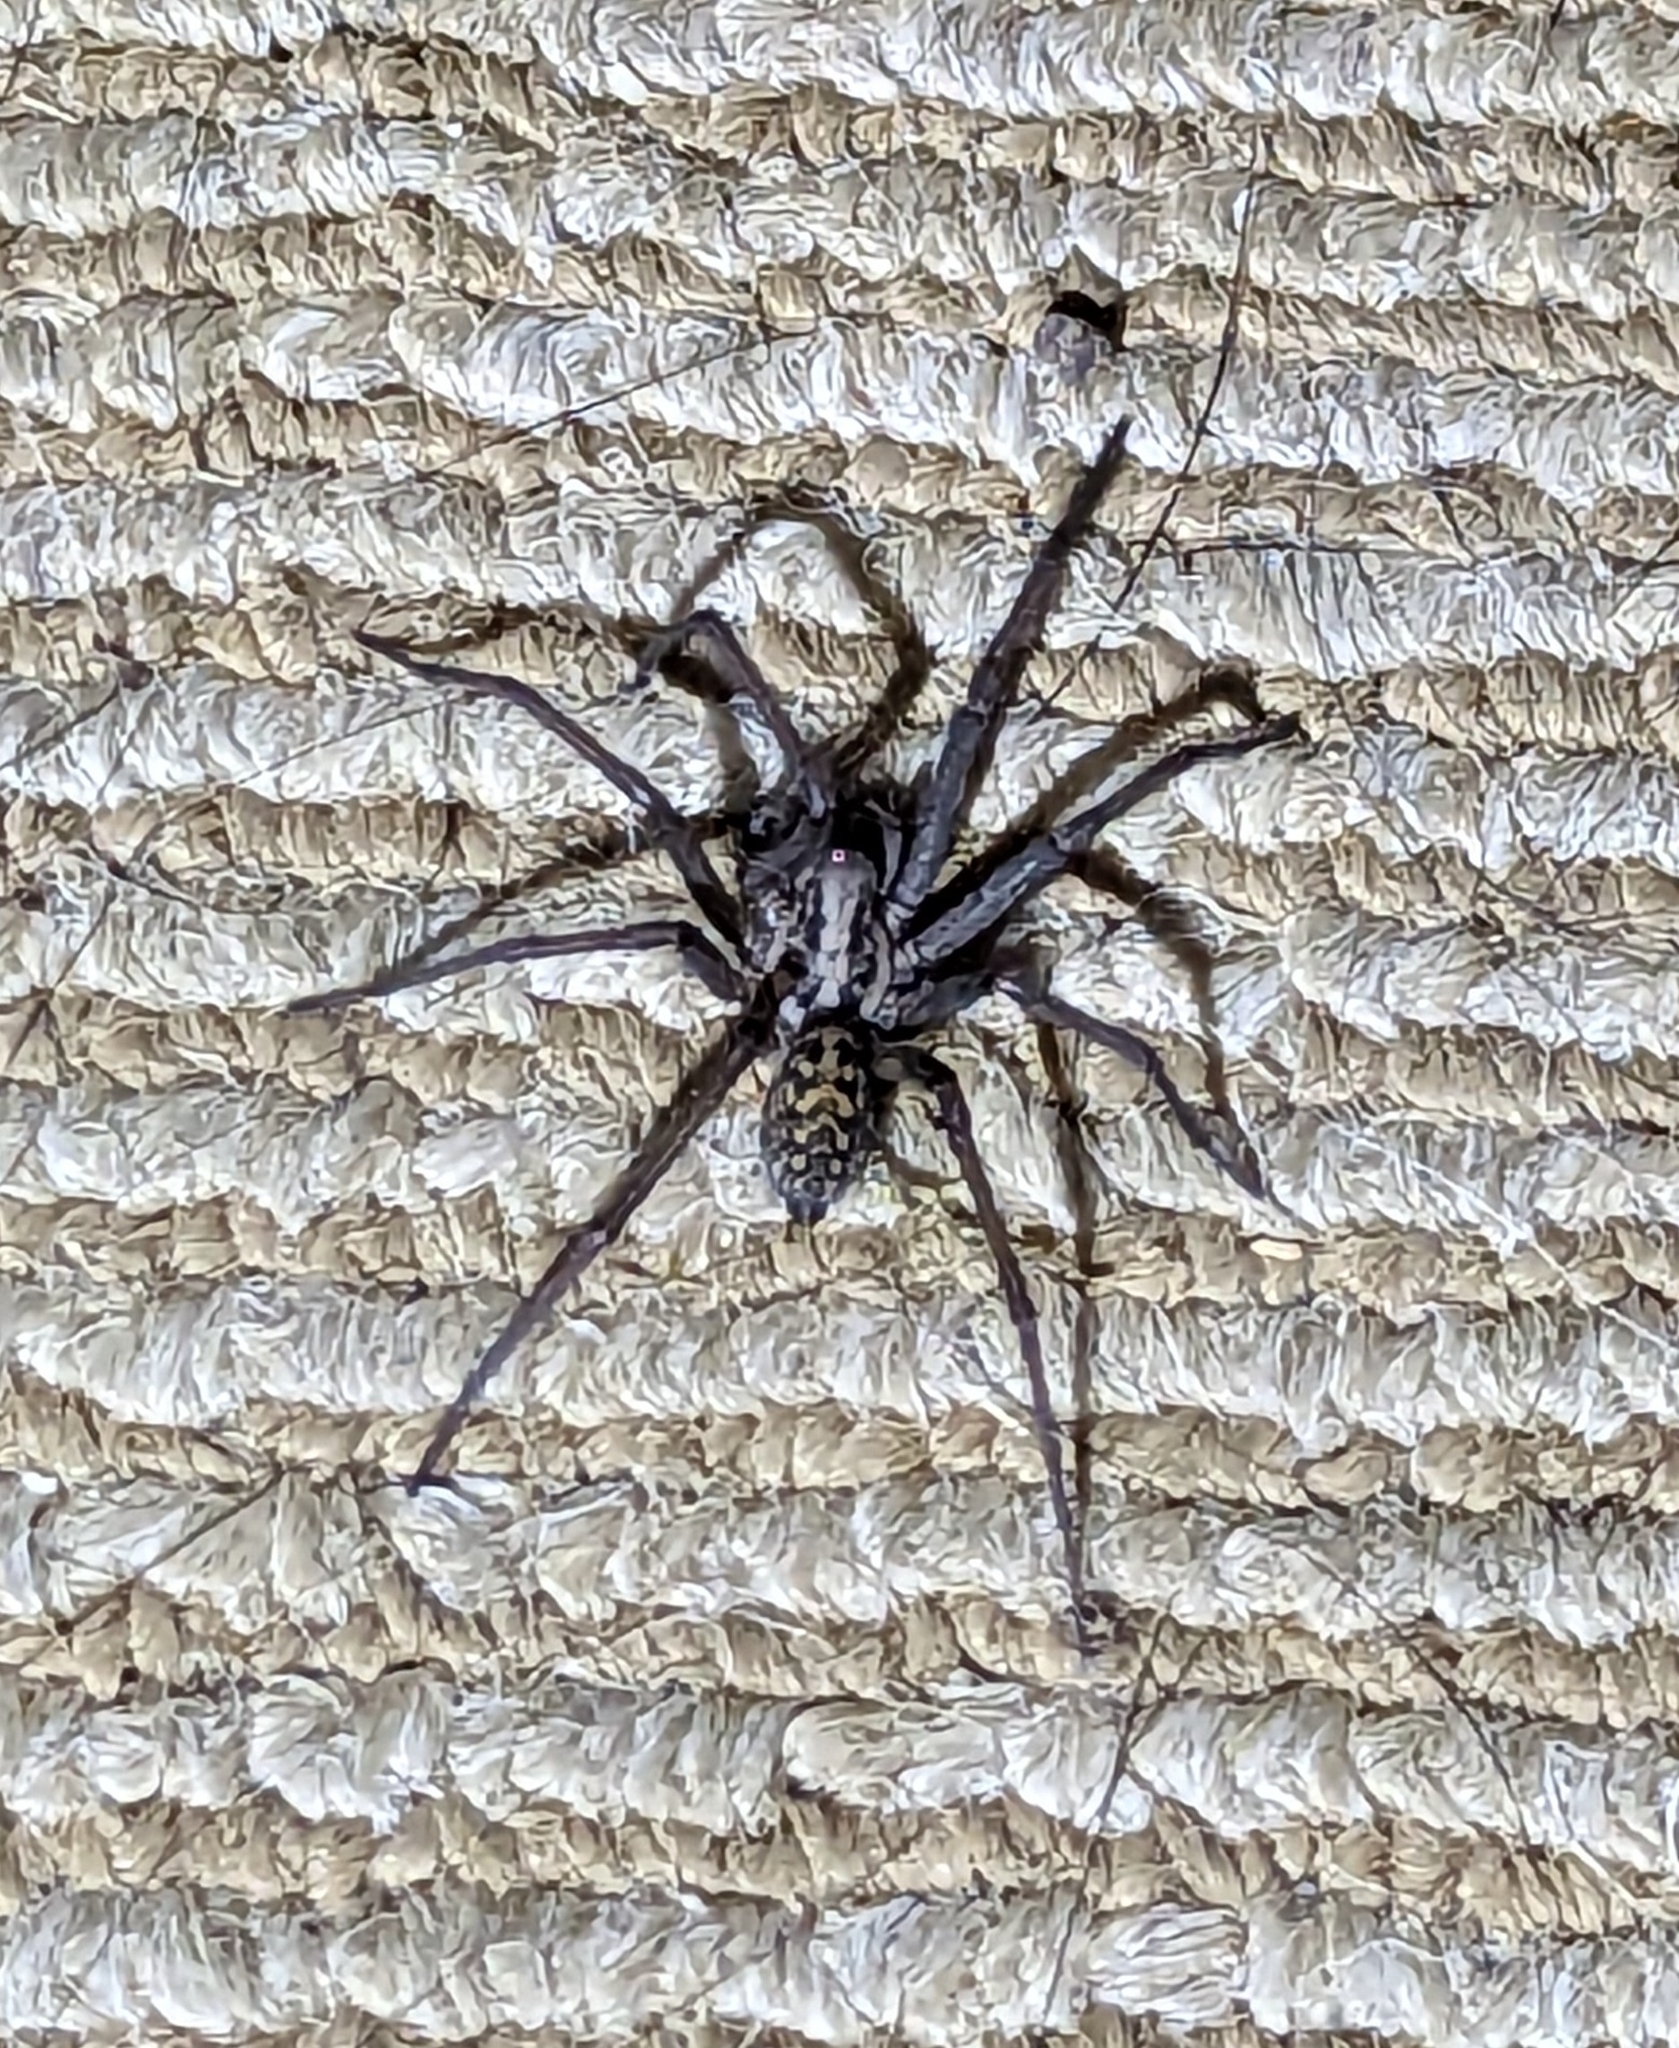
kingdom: Animalia
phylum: Arthropoda
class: Arachnida
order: Araneae
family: Agelenidae
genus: Eratigena
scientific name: Eratigena duellica
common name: Giant house spider
